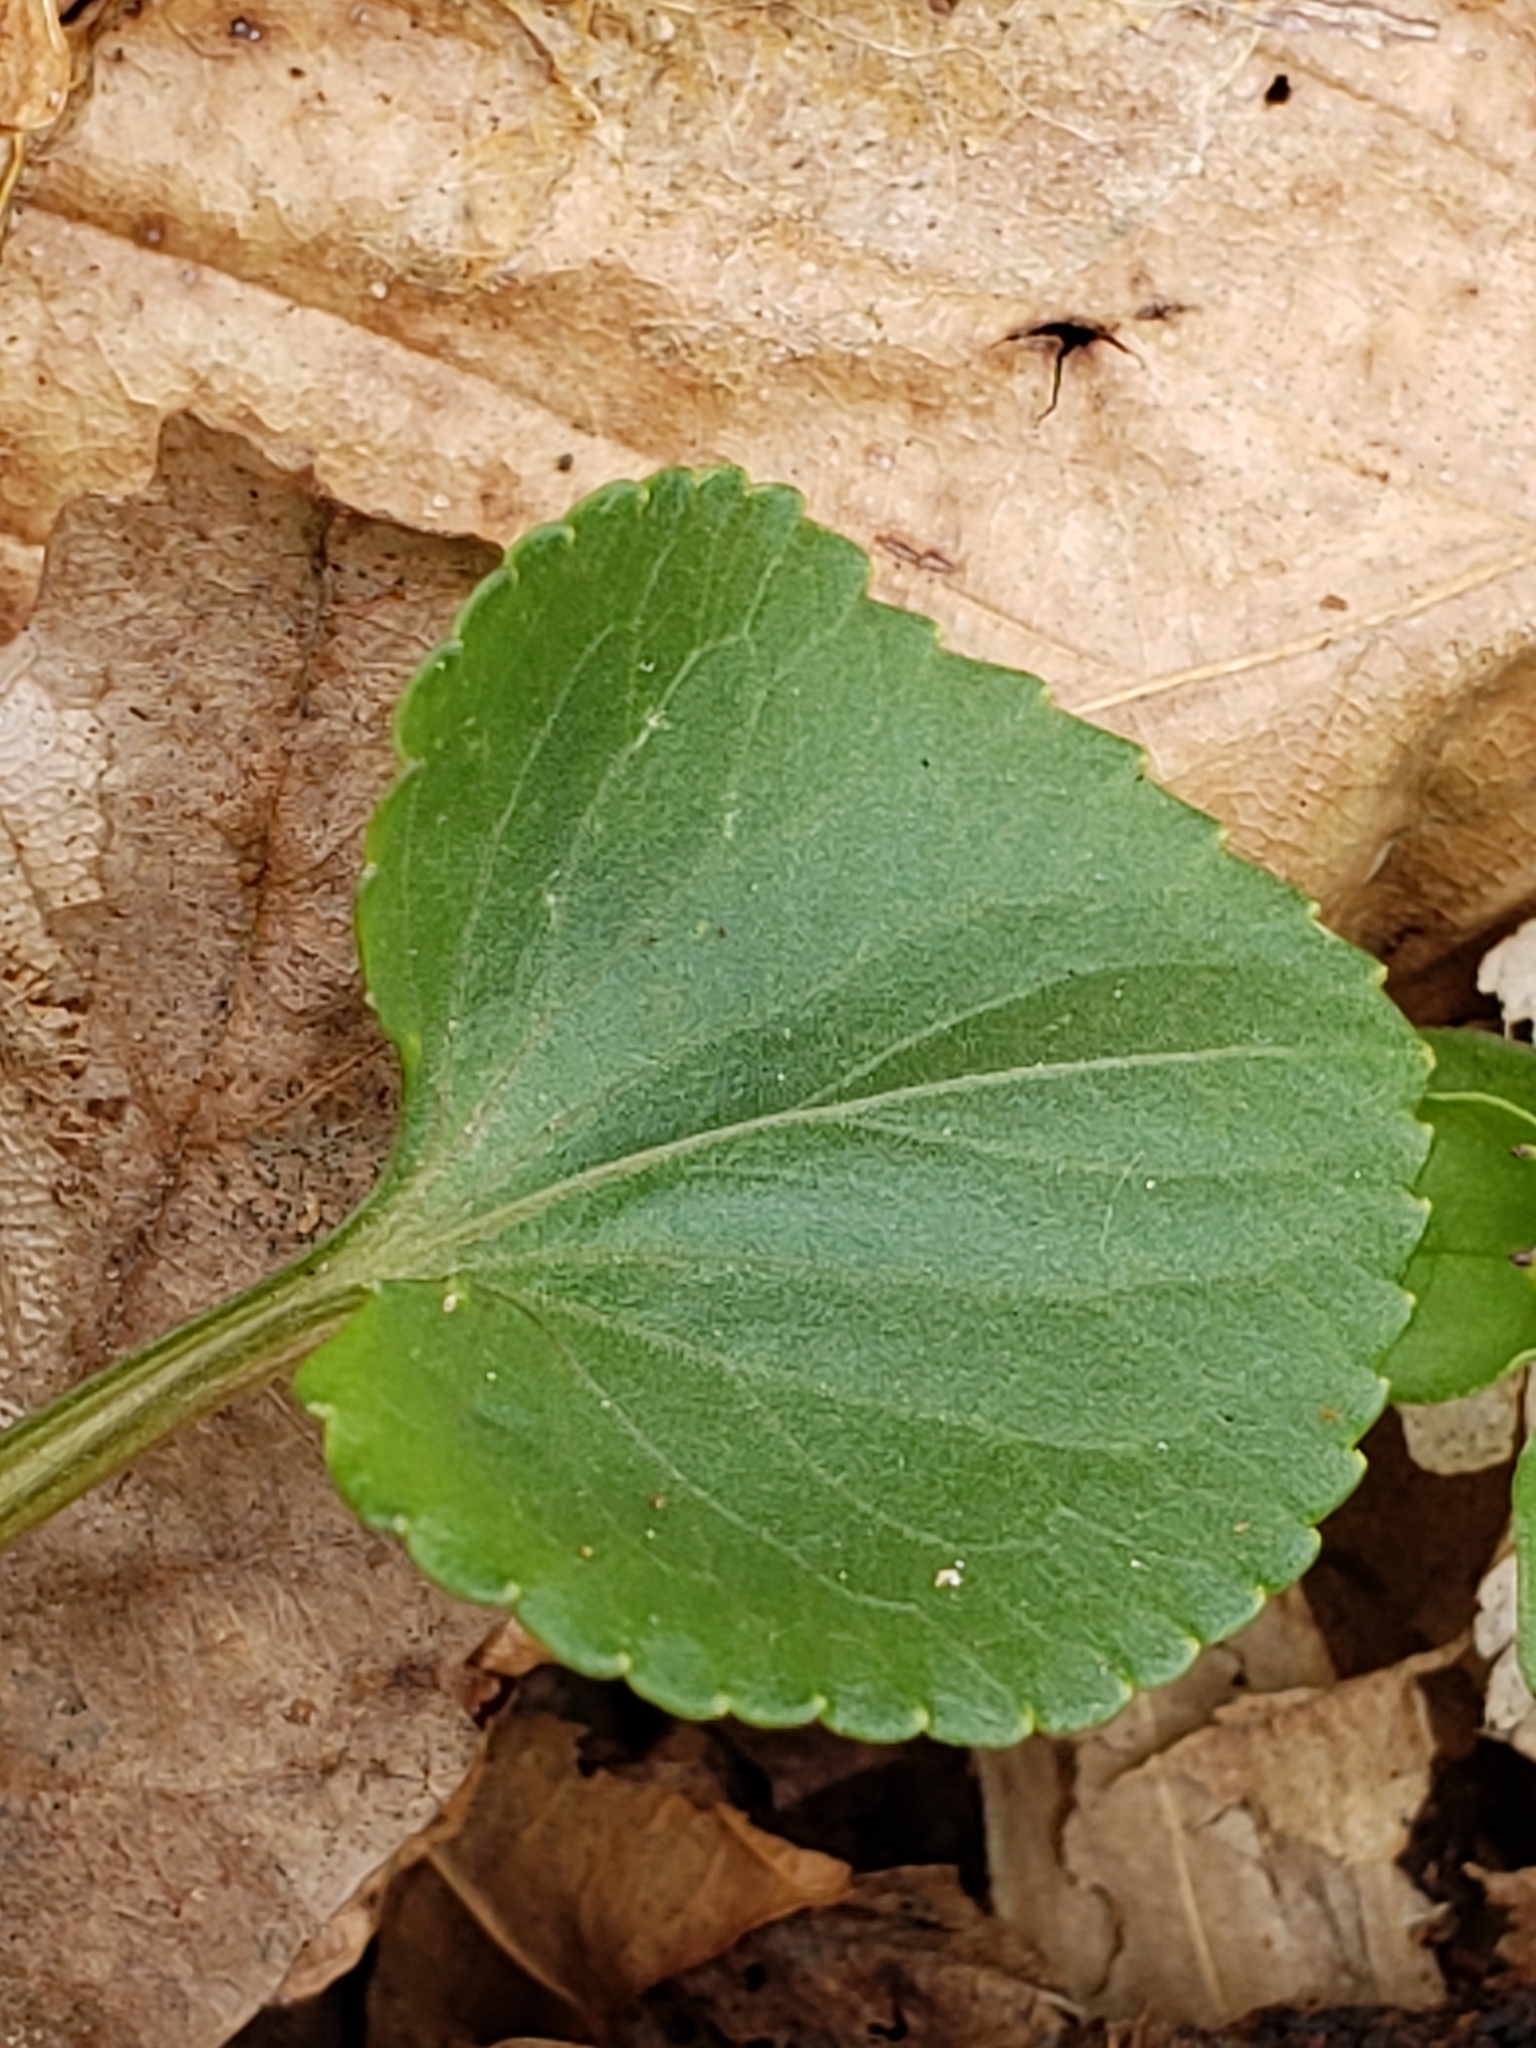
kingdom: Plantae
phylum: Tracheophyta
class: Magnoliopsida
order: Malpighiales
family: Violaceae
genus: Viola
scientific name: Viola sororia
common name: Dooryard violet
